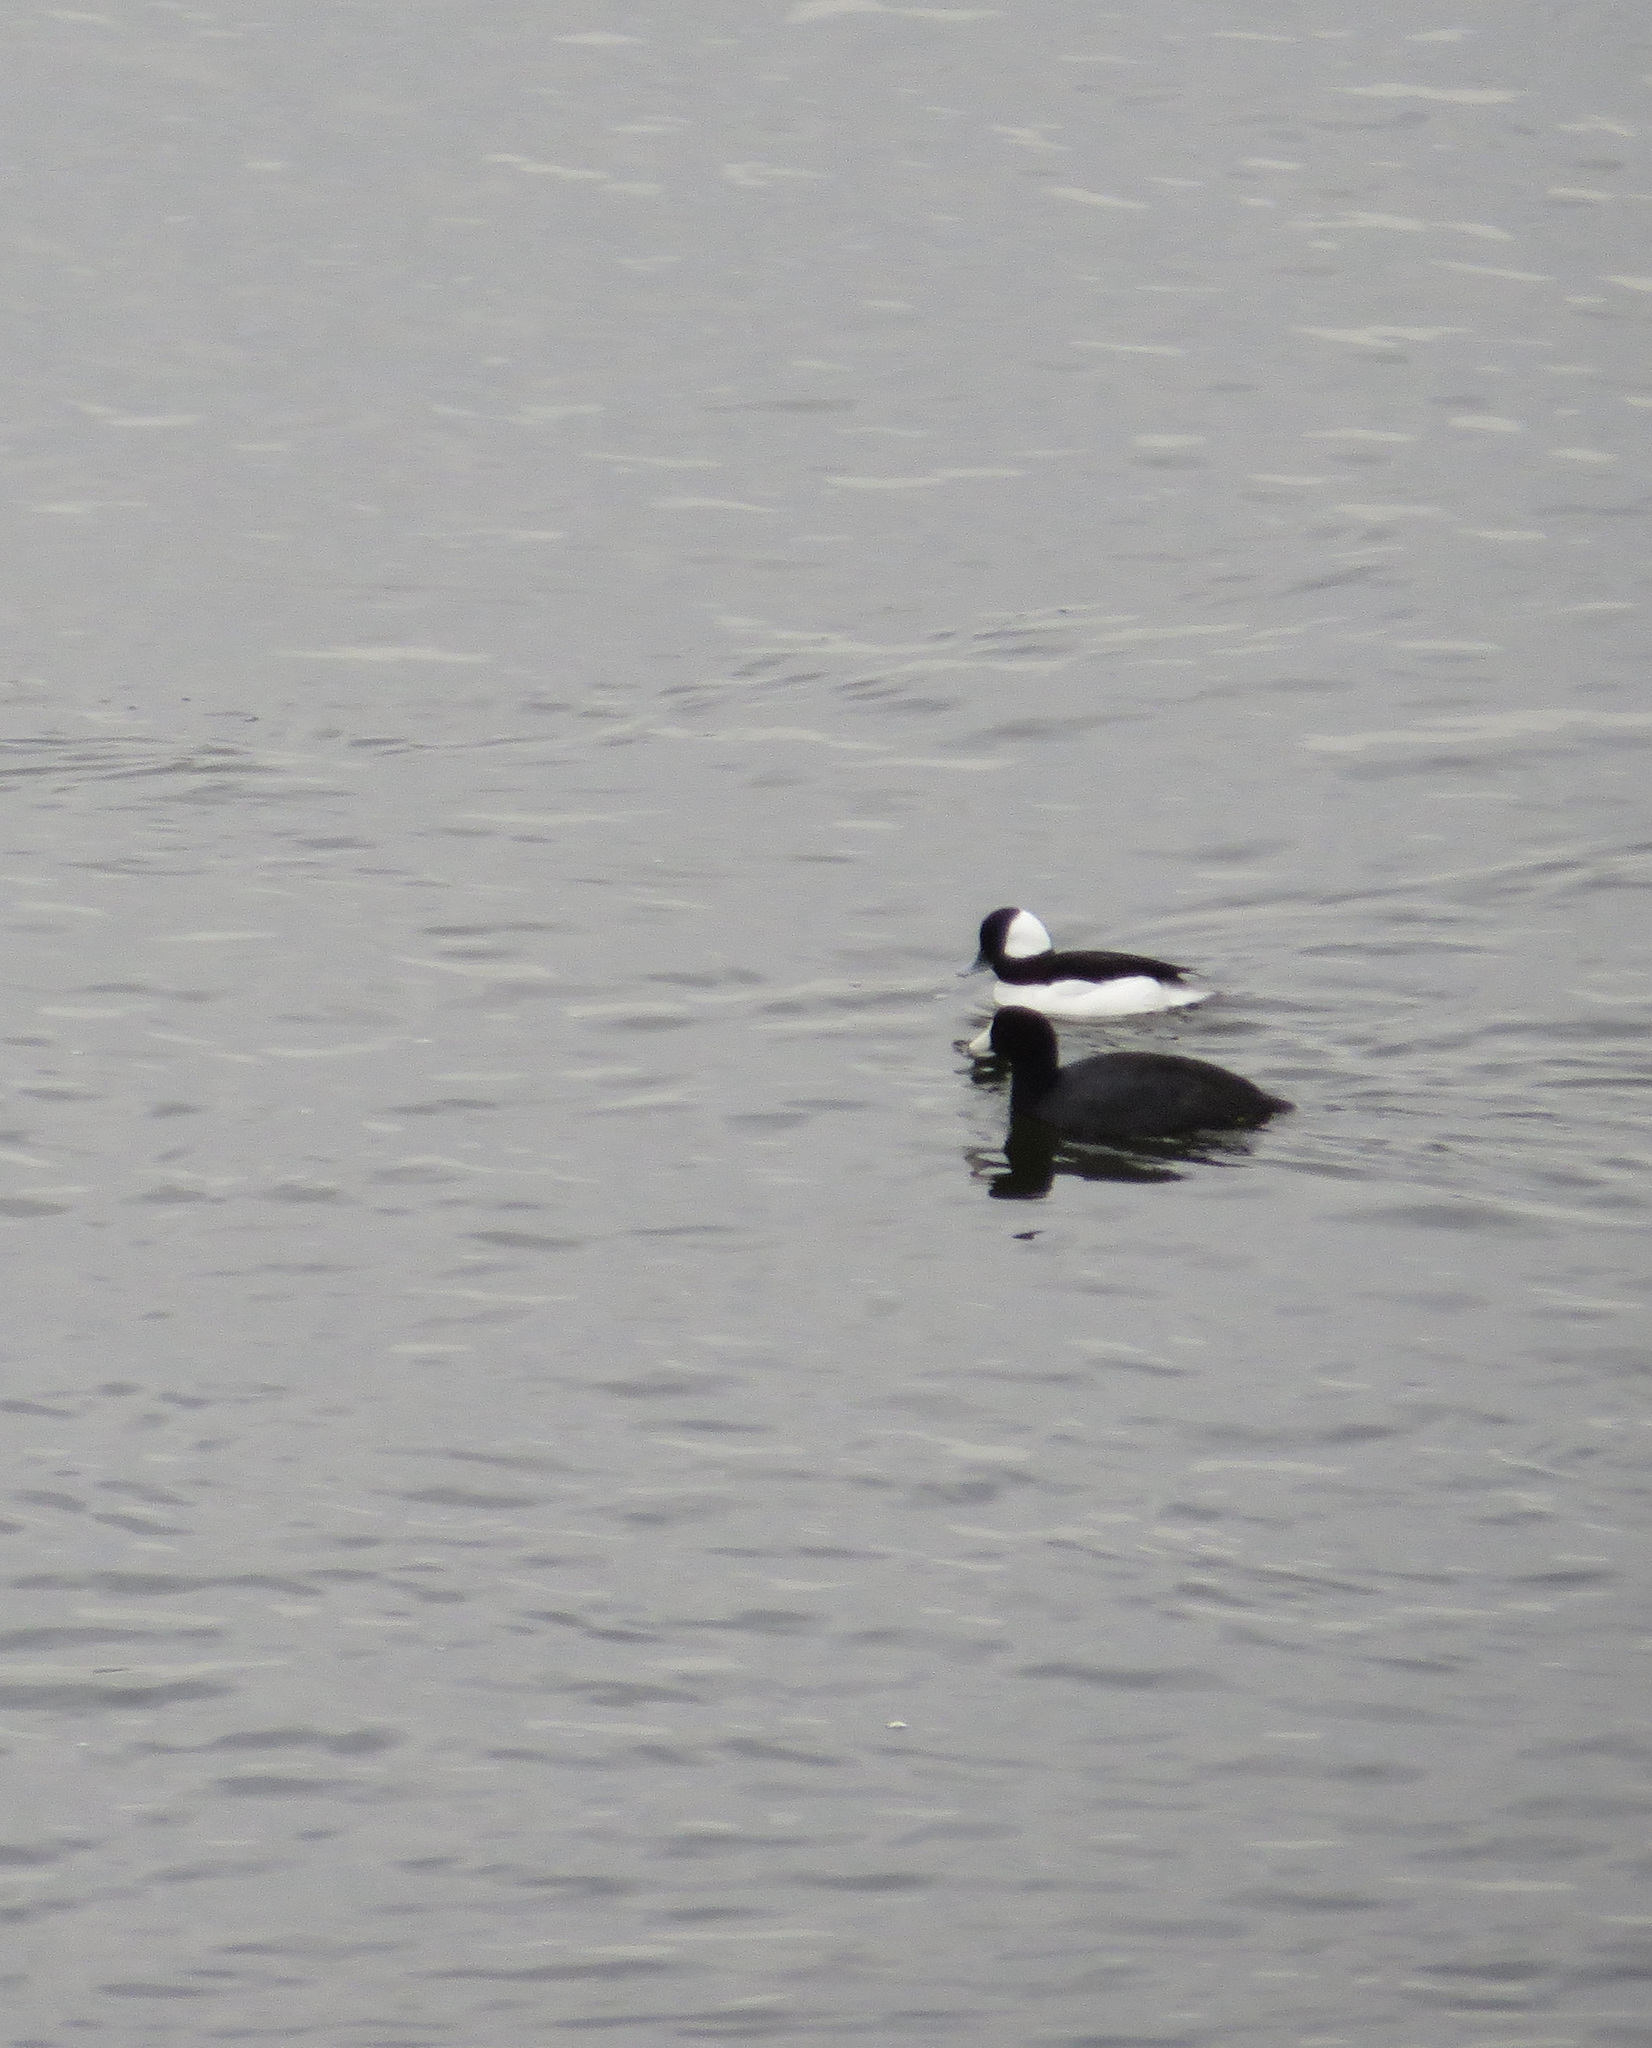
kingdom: Animalia
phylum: Chordata
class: Aves
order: Anseriformes
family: Anatidae
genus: Bucephala
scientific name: Bucephala albeola
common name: Bufflehead
